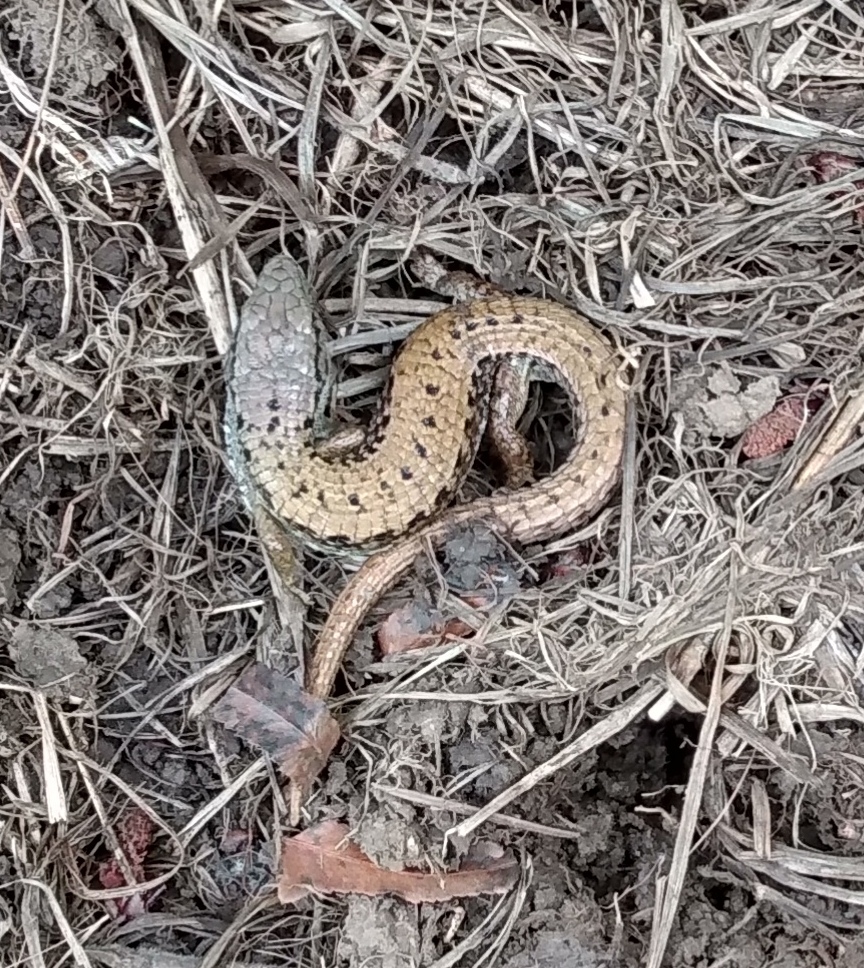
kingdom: Animalia
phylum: Chordata
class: Squamata
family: Anguidae
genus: Elgaria
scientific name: Elgaria coerulea
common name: Northern alligator lizard
